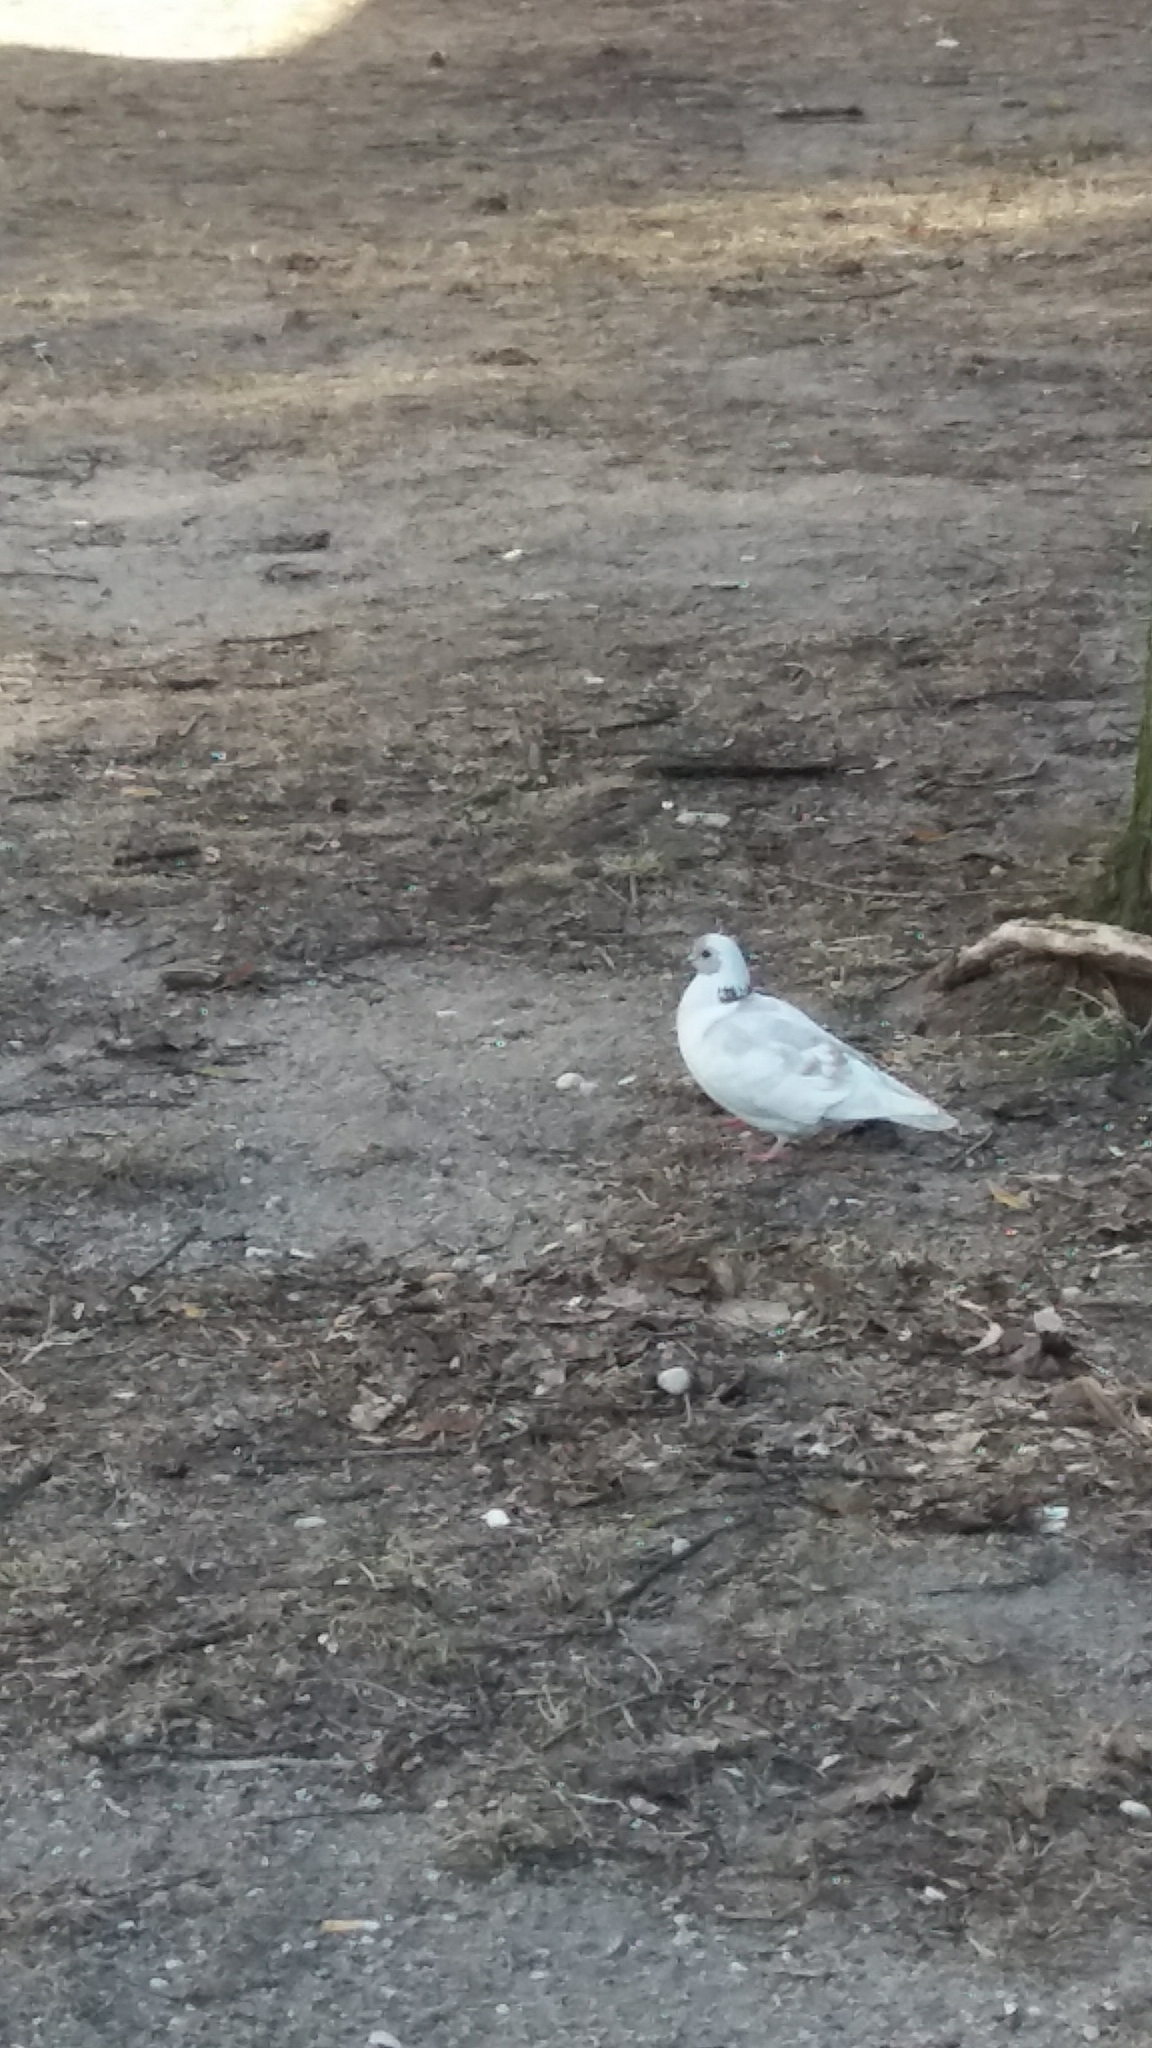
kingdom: Animalia
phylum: Chordata
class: Aves
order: Columbiformes
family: Columbidae
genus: Columba
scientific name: Columba livia
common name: Rock pigeon
